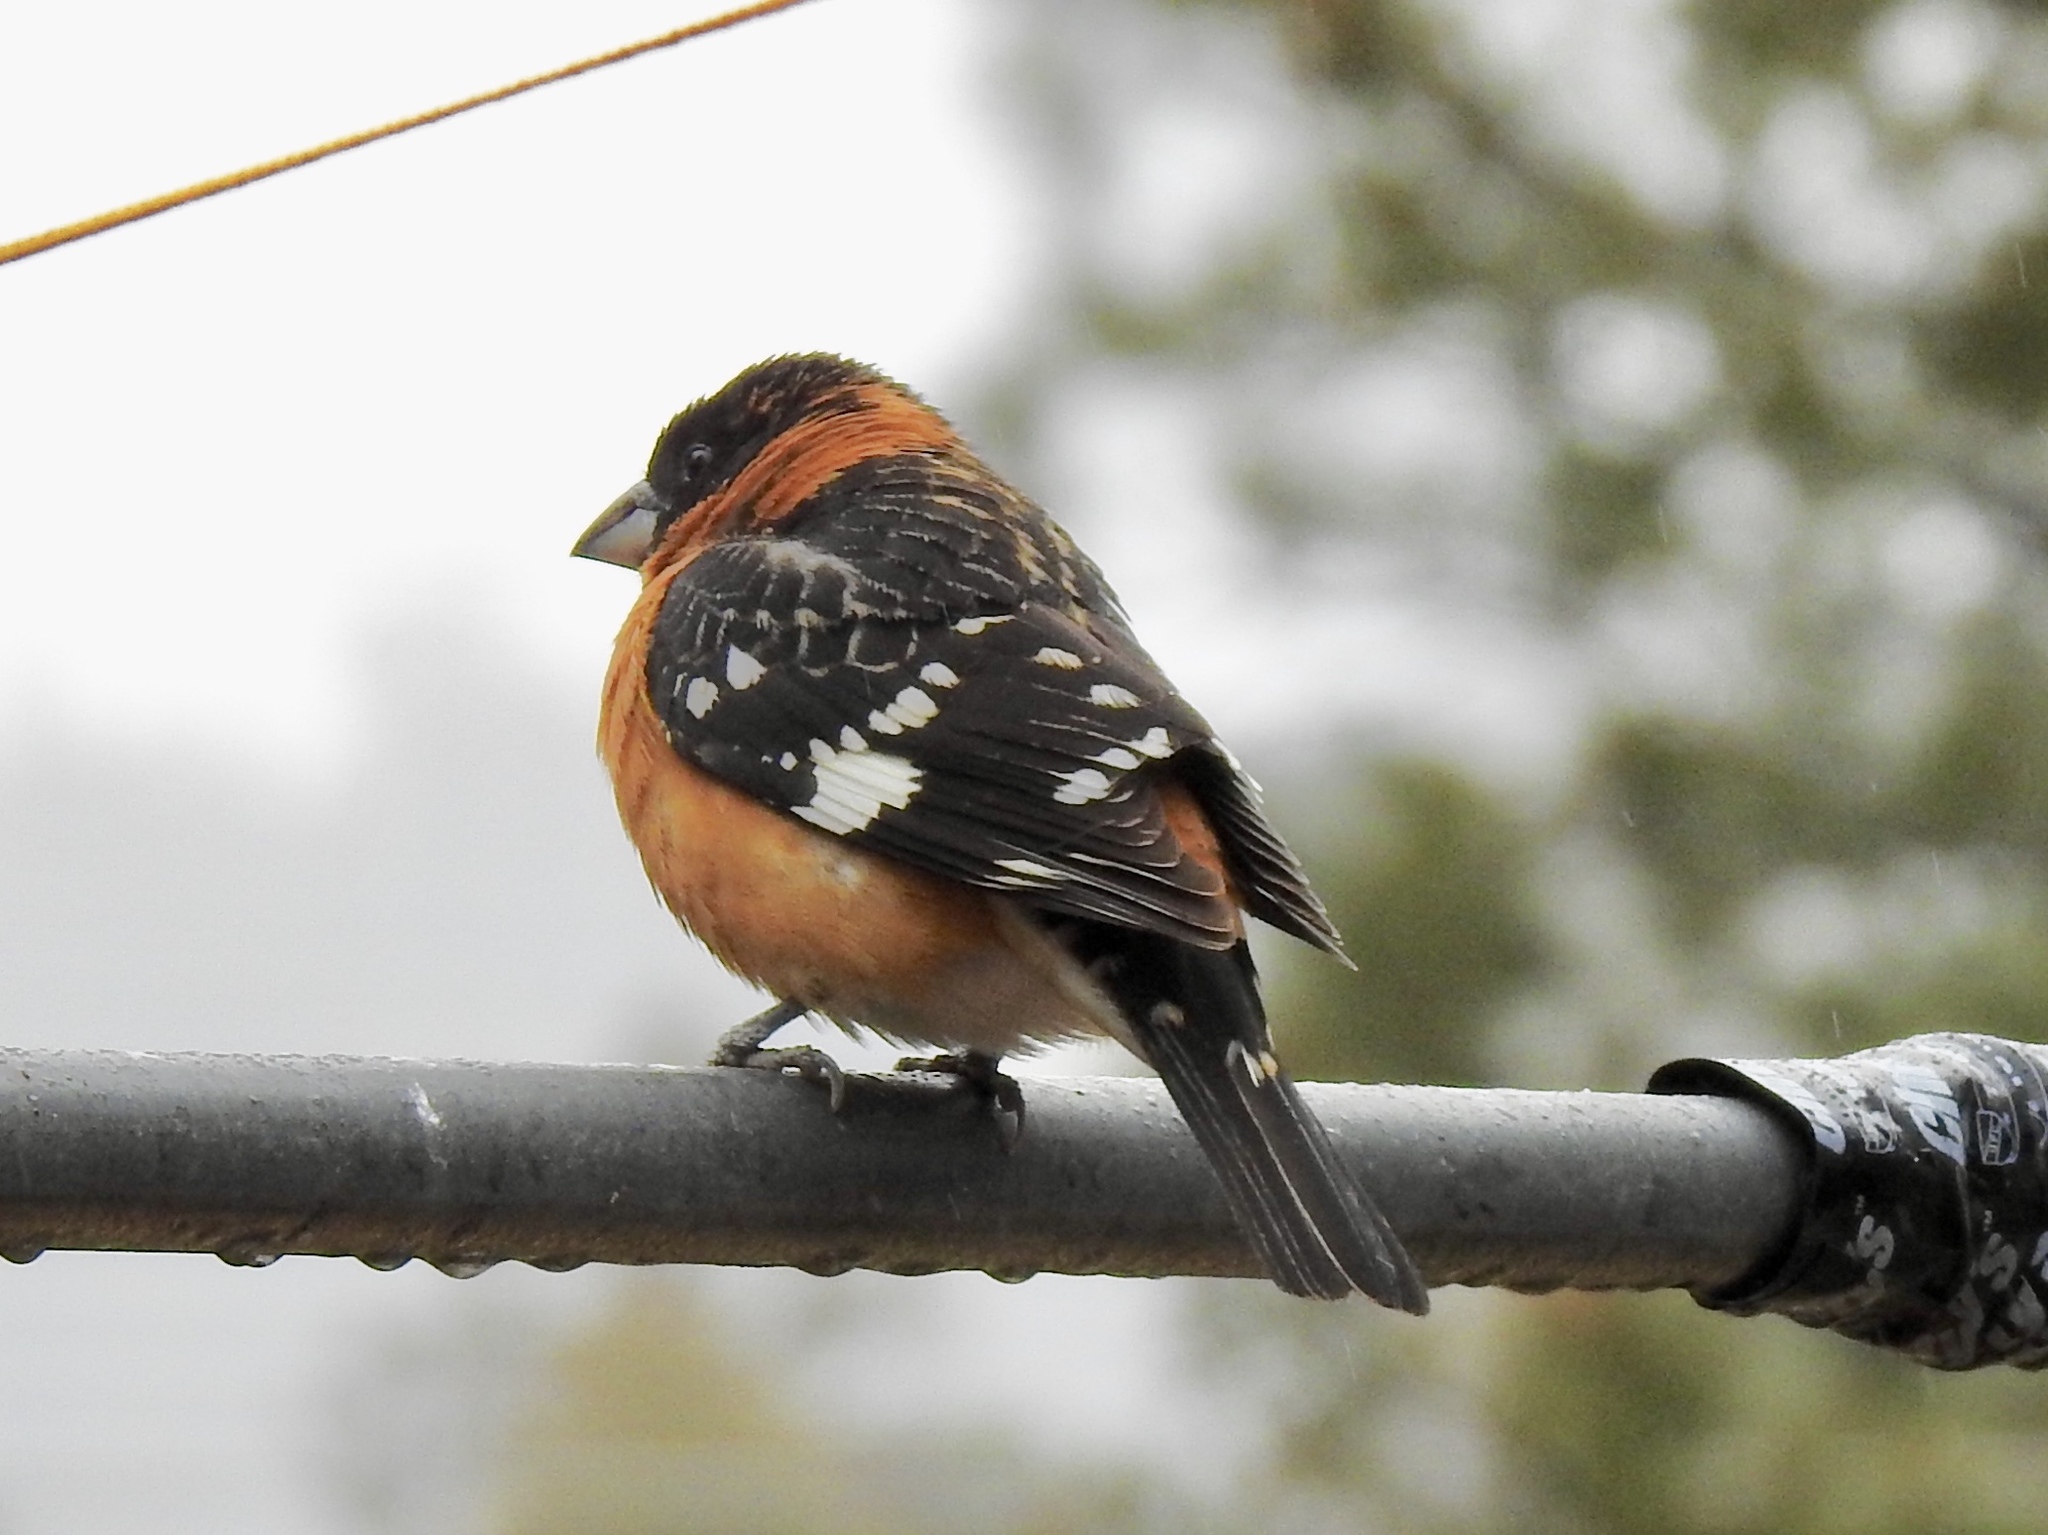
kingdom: Animalia
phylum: Chordata
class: Aves
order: Passeriformes
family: Cardinalidae
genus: Pheucticus
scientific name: Pheucticus melanocephalus
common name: Black-headed grosbeak
